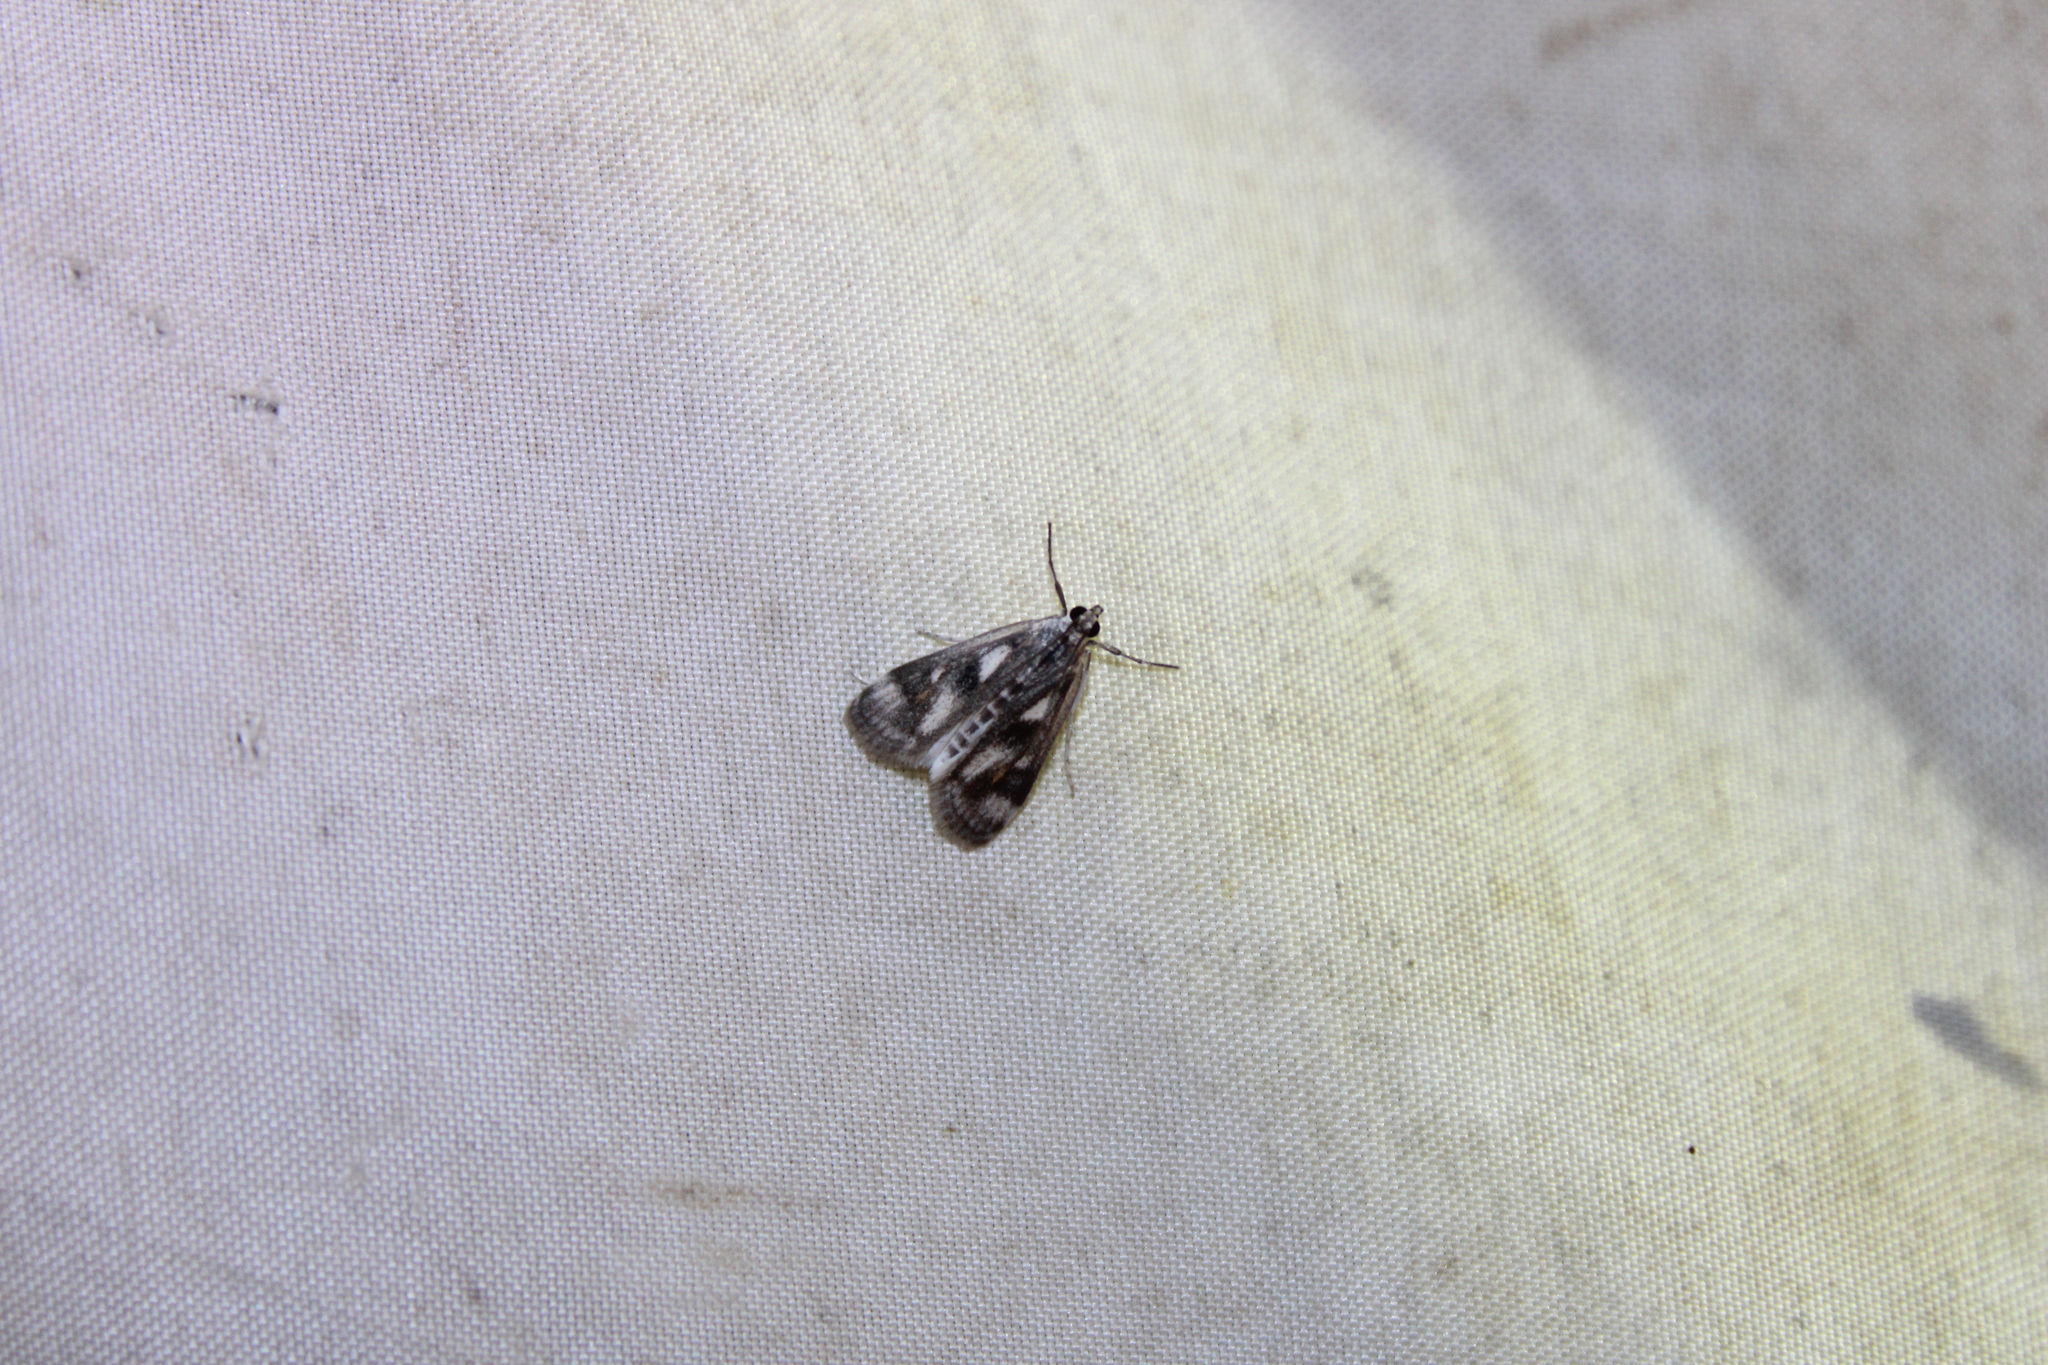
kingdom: Animalia
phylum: Arthropoda
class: Insecta
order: Lepidoptera
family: Crambidae
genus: Parapoynx
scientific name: Parapoynx maculalis
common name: Polymorphic pondweed moth
